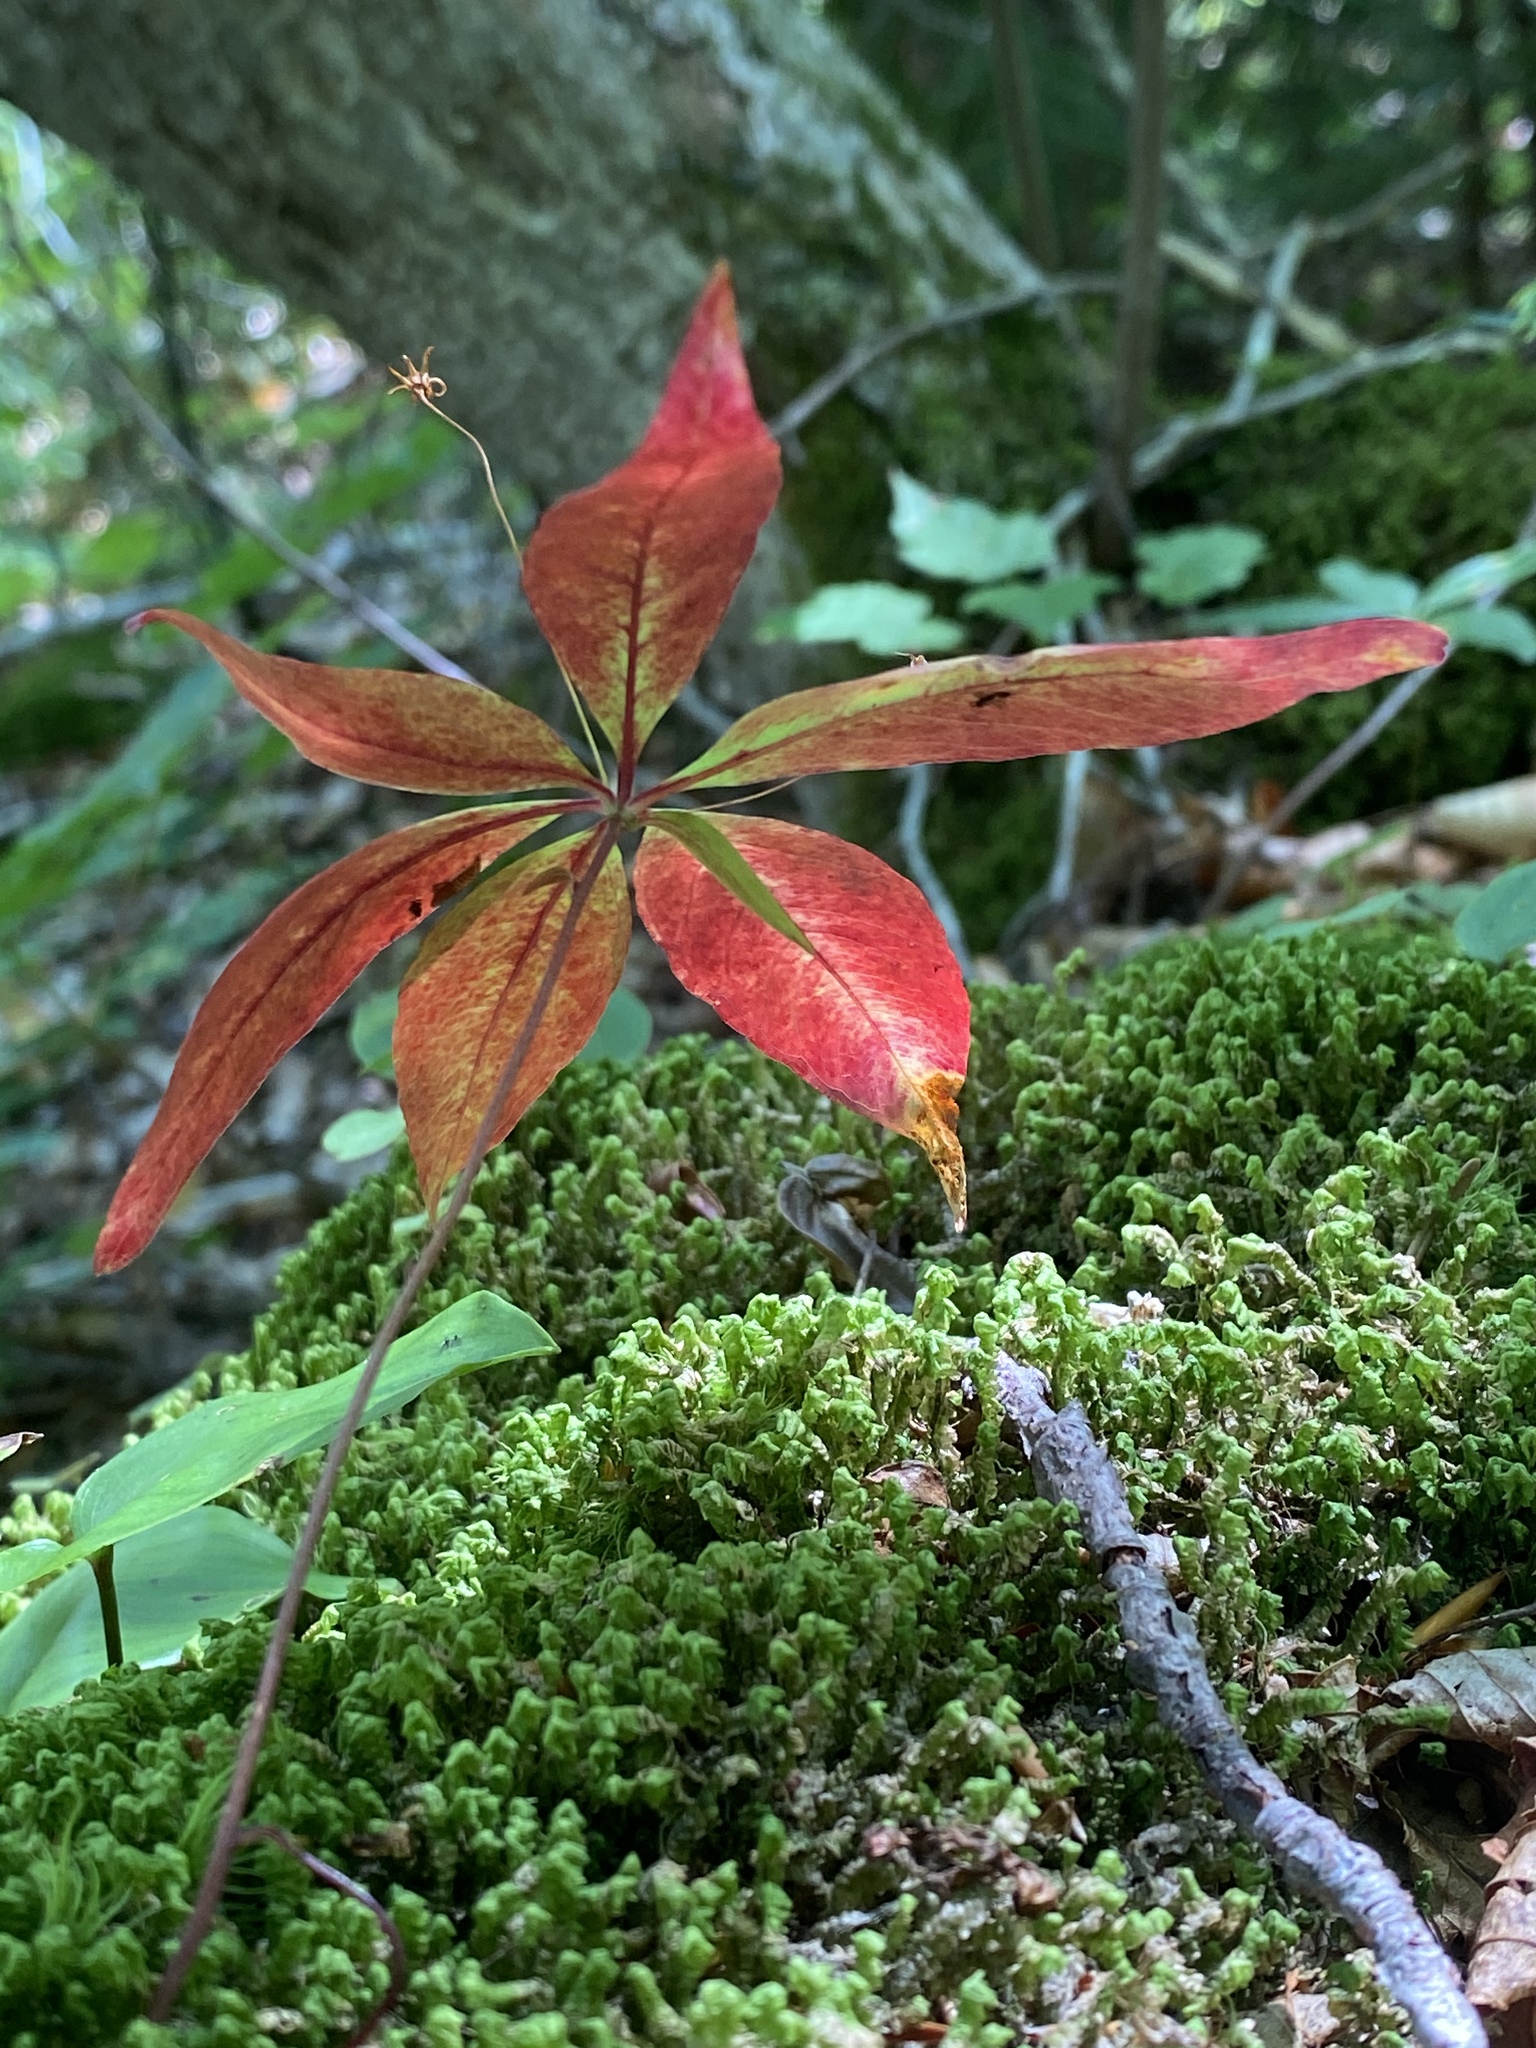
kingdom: Plantae
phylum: Tracheophyta
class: Magnoliopsida
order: Ericales
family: Primulaceae
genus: Lysimachia
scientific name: Lysimachia borealis
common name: American starflower
